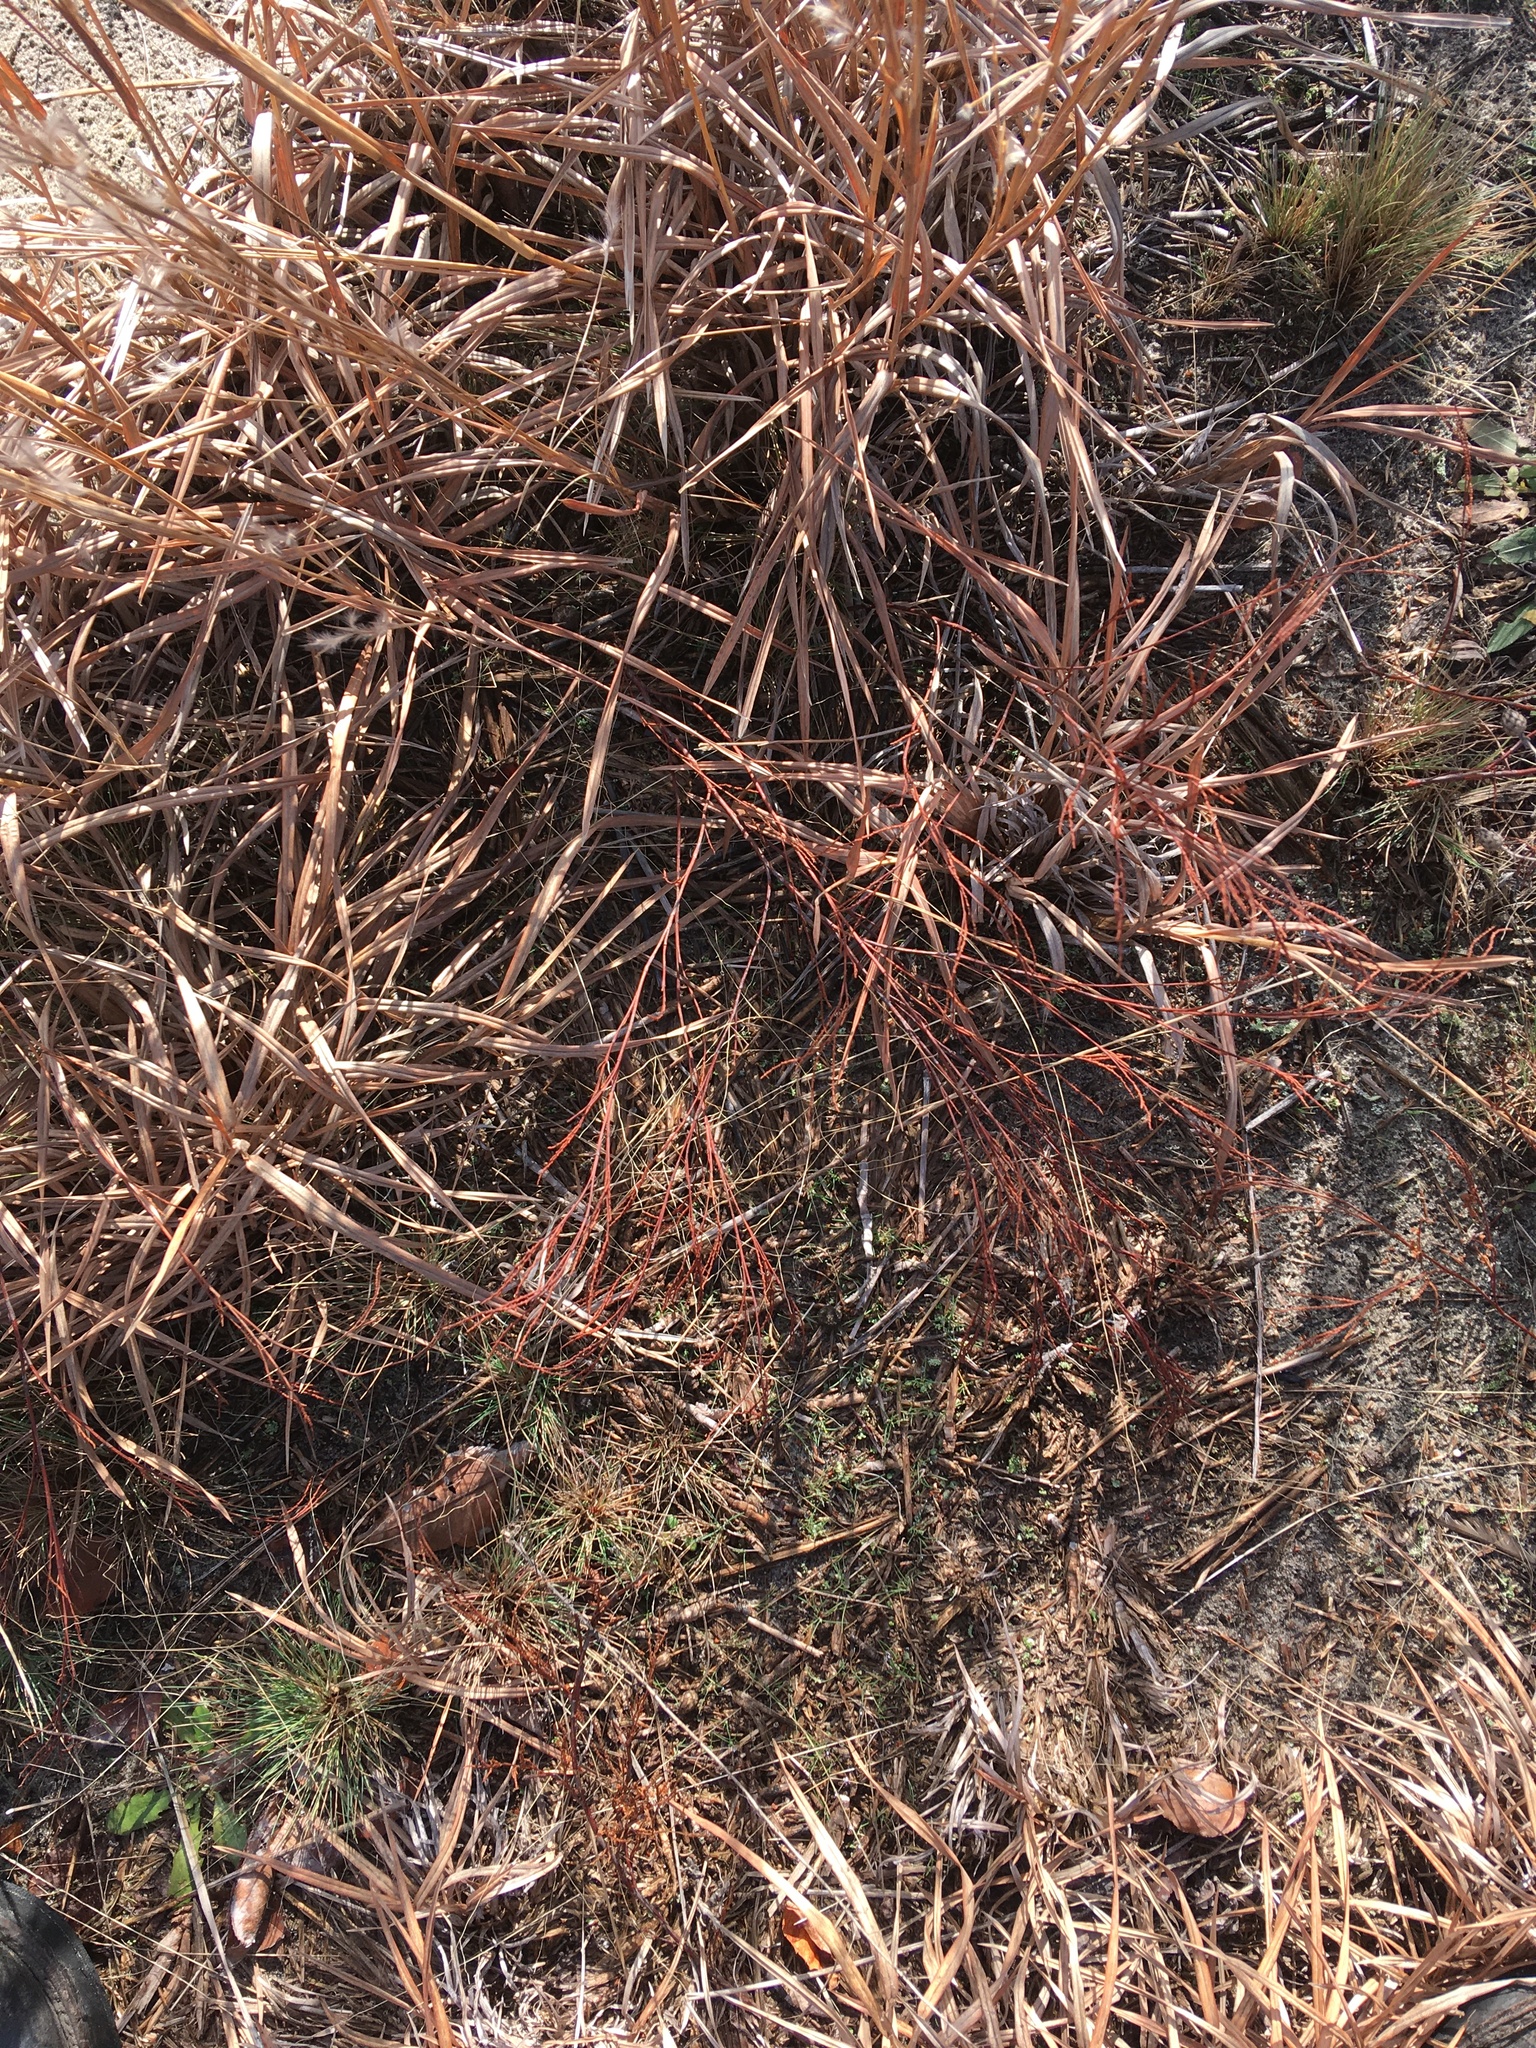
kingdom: Plantae
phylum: Tracheophyta
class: Magnoliopsida
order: Caryophyllales
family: Polygonaceae
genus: Polygonella
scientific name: Polygonella articulata
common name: Coastal jointweed
